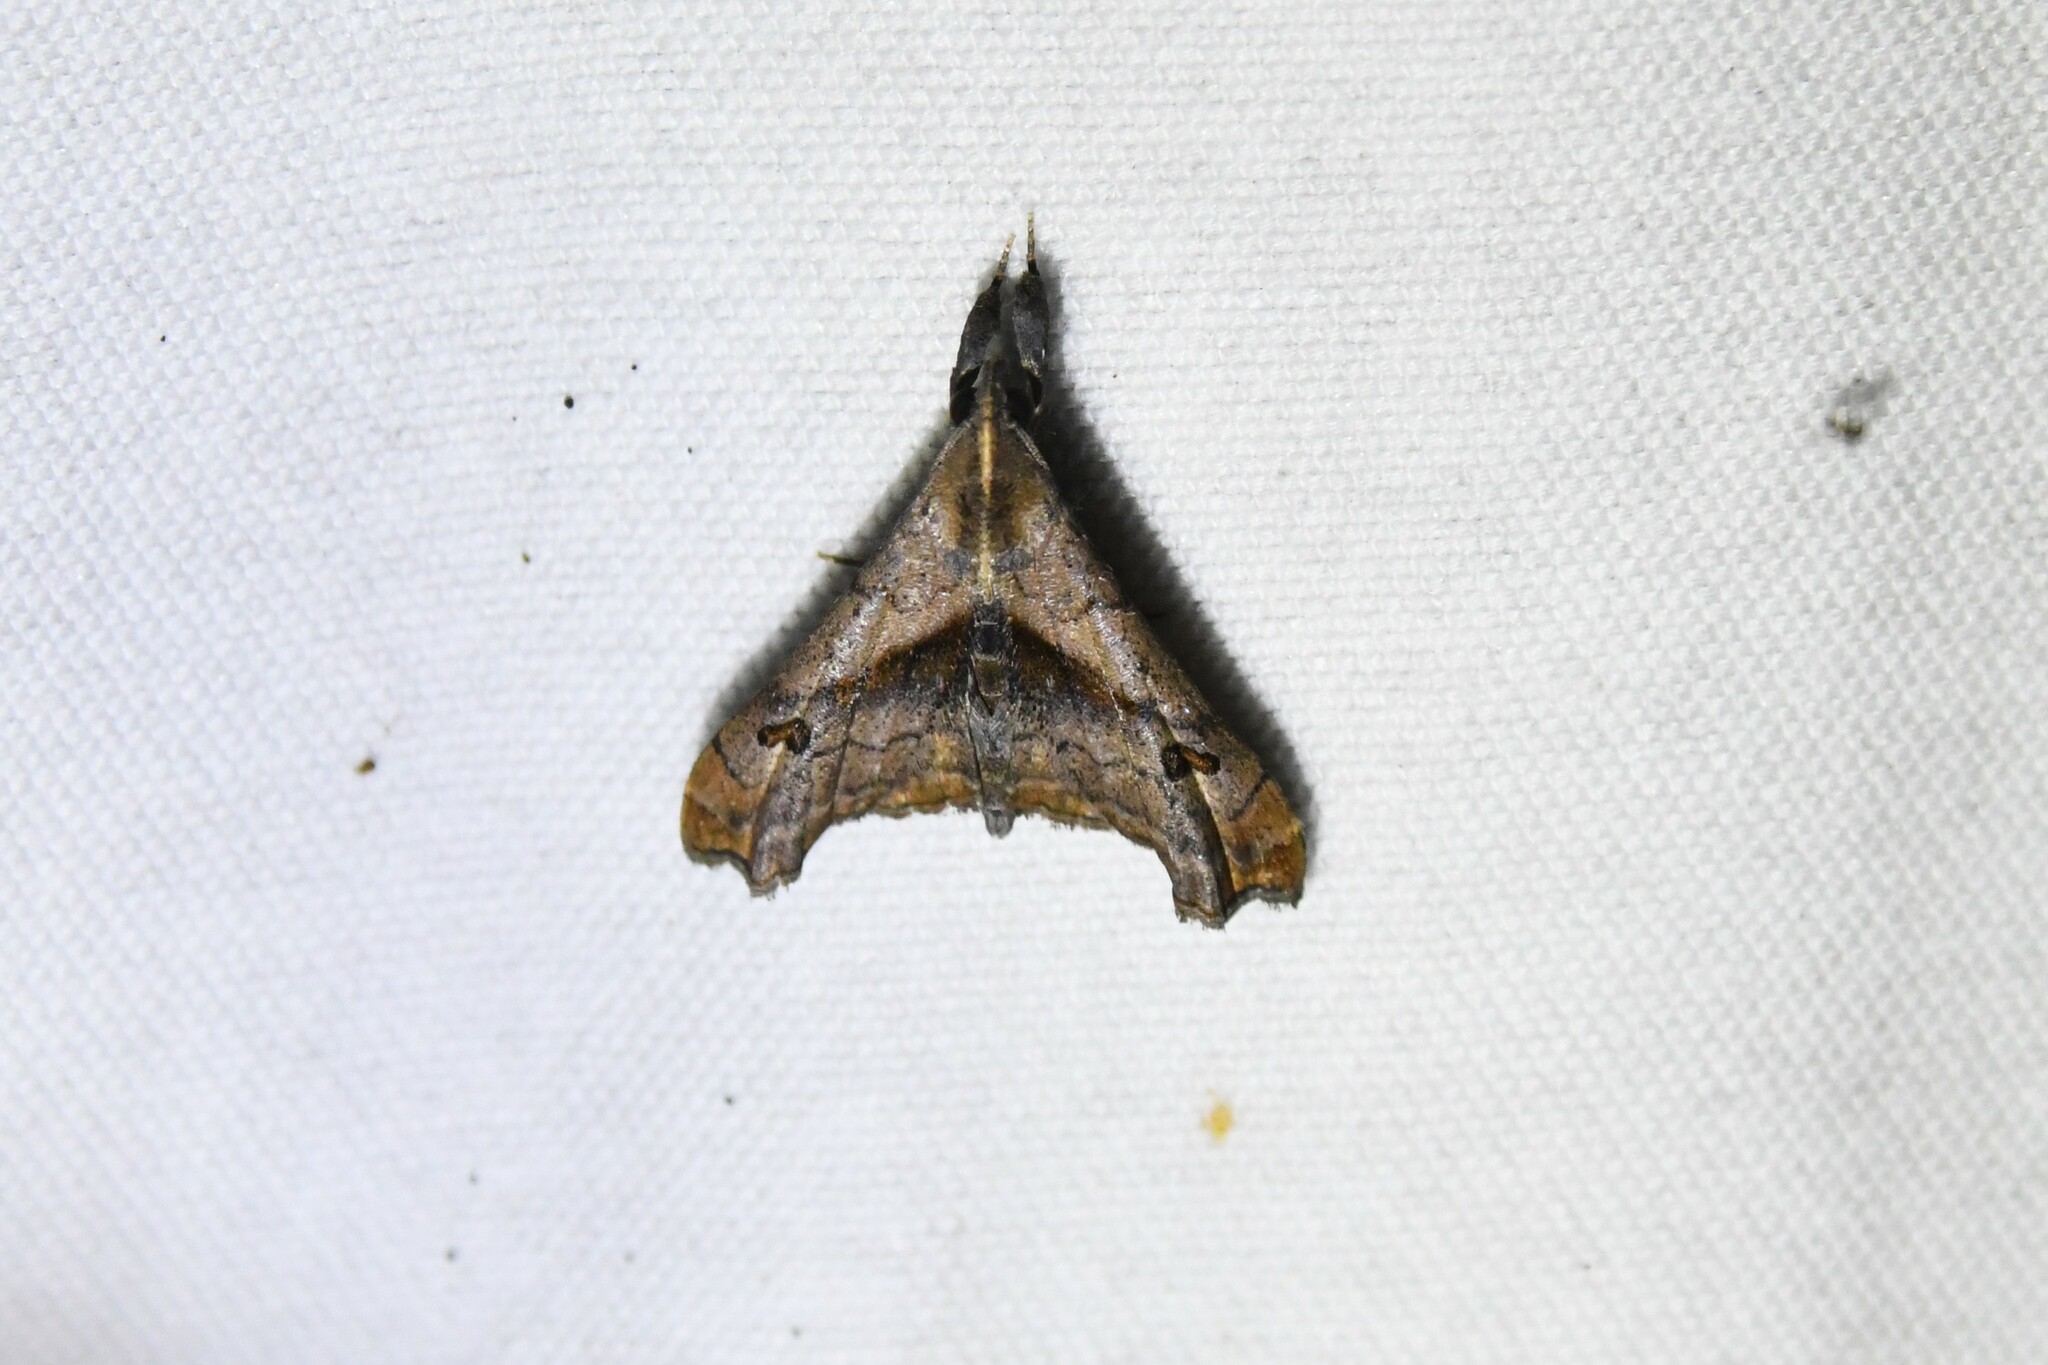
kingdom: Animalia
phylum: Arthropoda
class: Insecta
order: Lepidoptera
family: Erebidae
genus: Palthis
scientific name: Palthis angulalis
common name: Dark-spotted palthis moth
